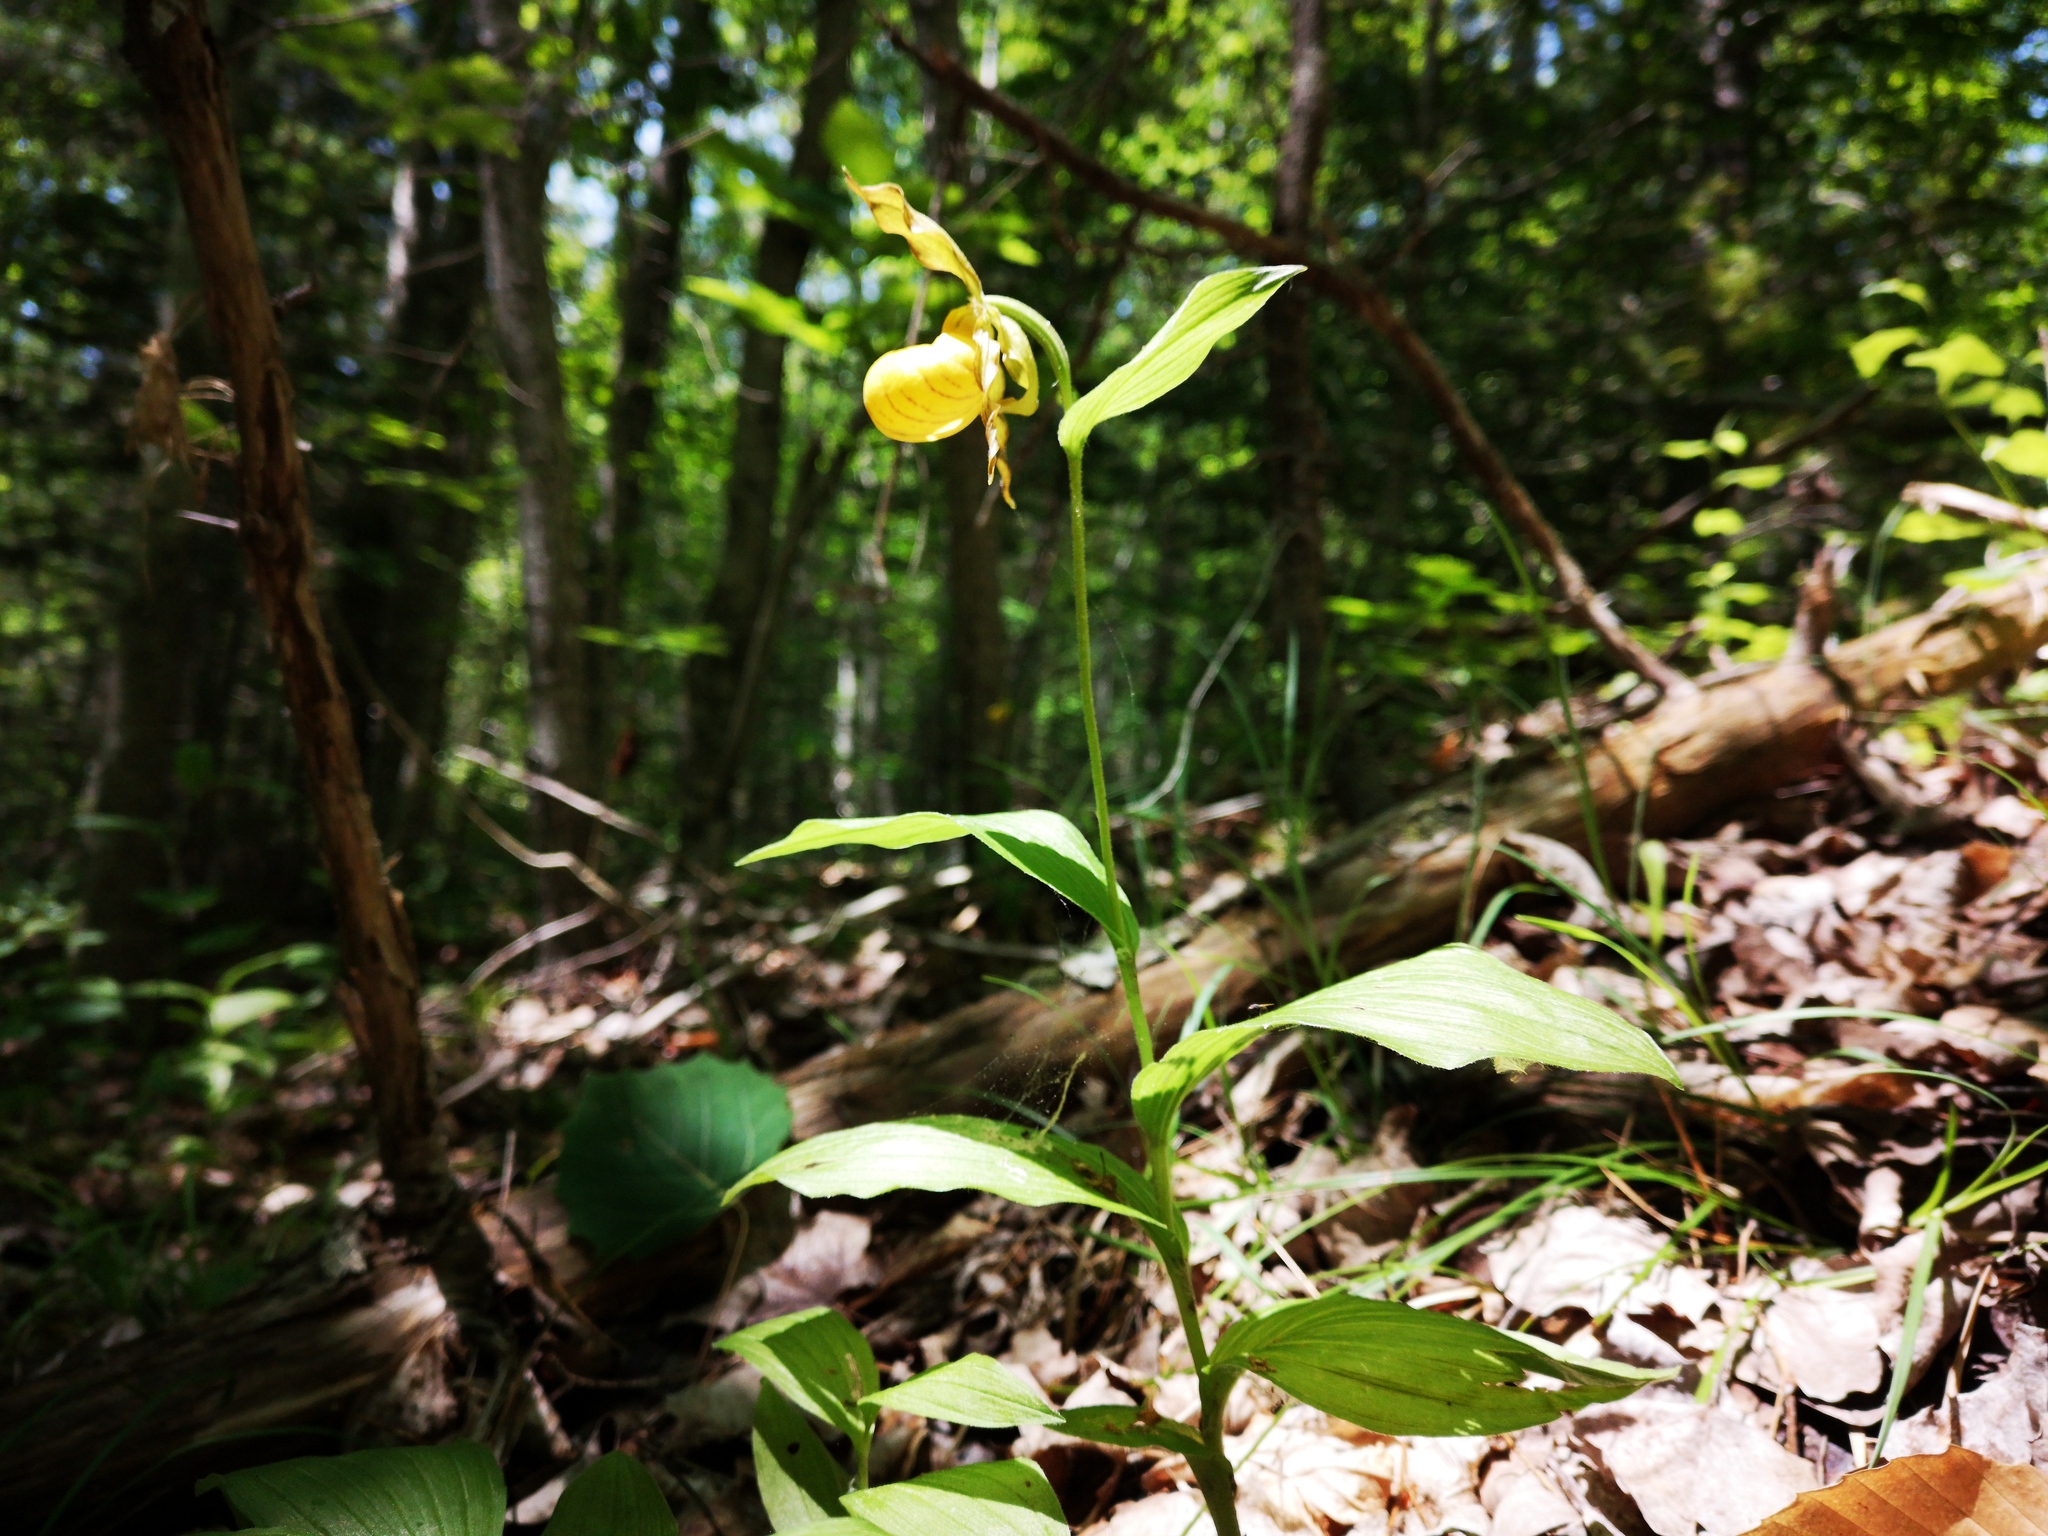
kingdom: Plantae
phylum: Tracheophyta
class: Liliopsida
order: Asparagales
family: Orchidaceae
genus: Cypripedium
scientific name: Cypripedium parviflorum
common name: American yellow lady's-slipper
